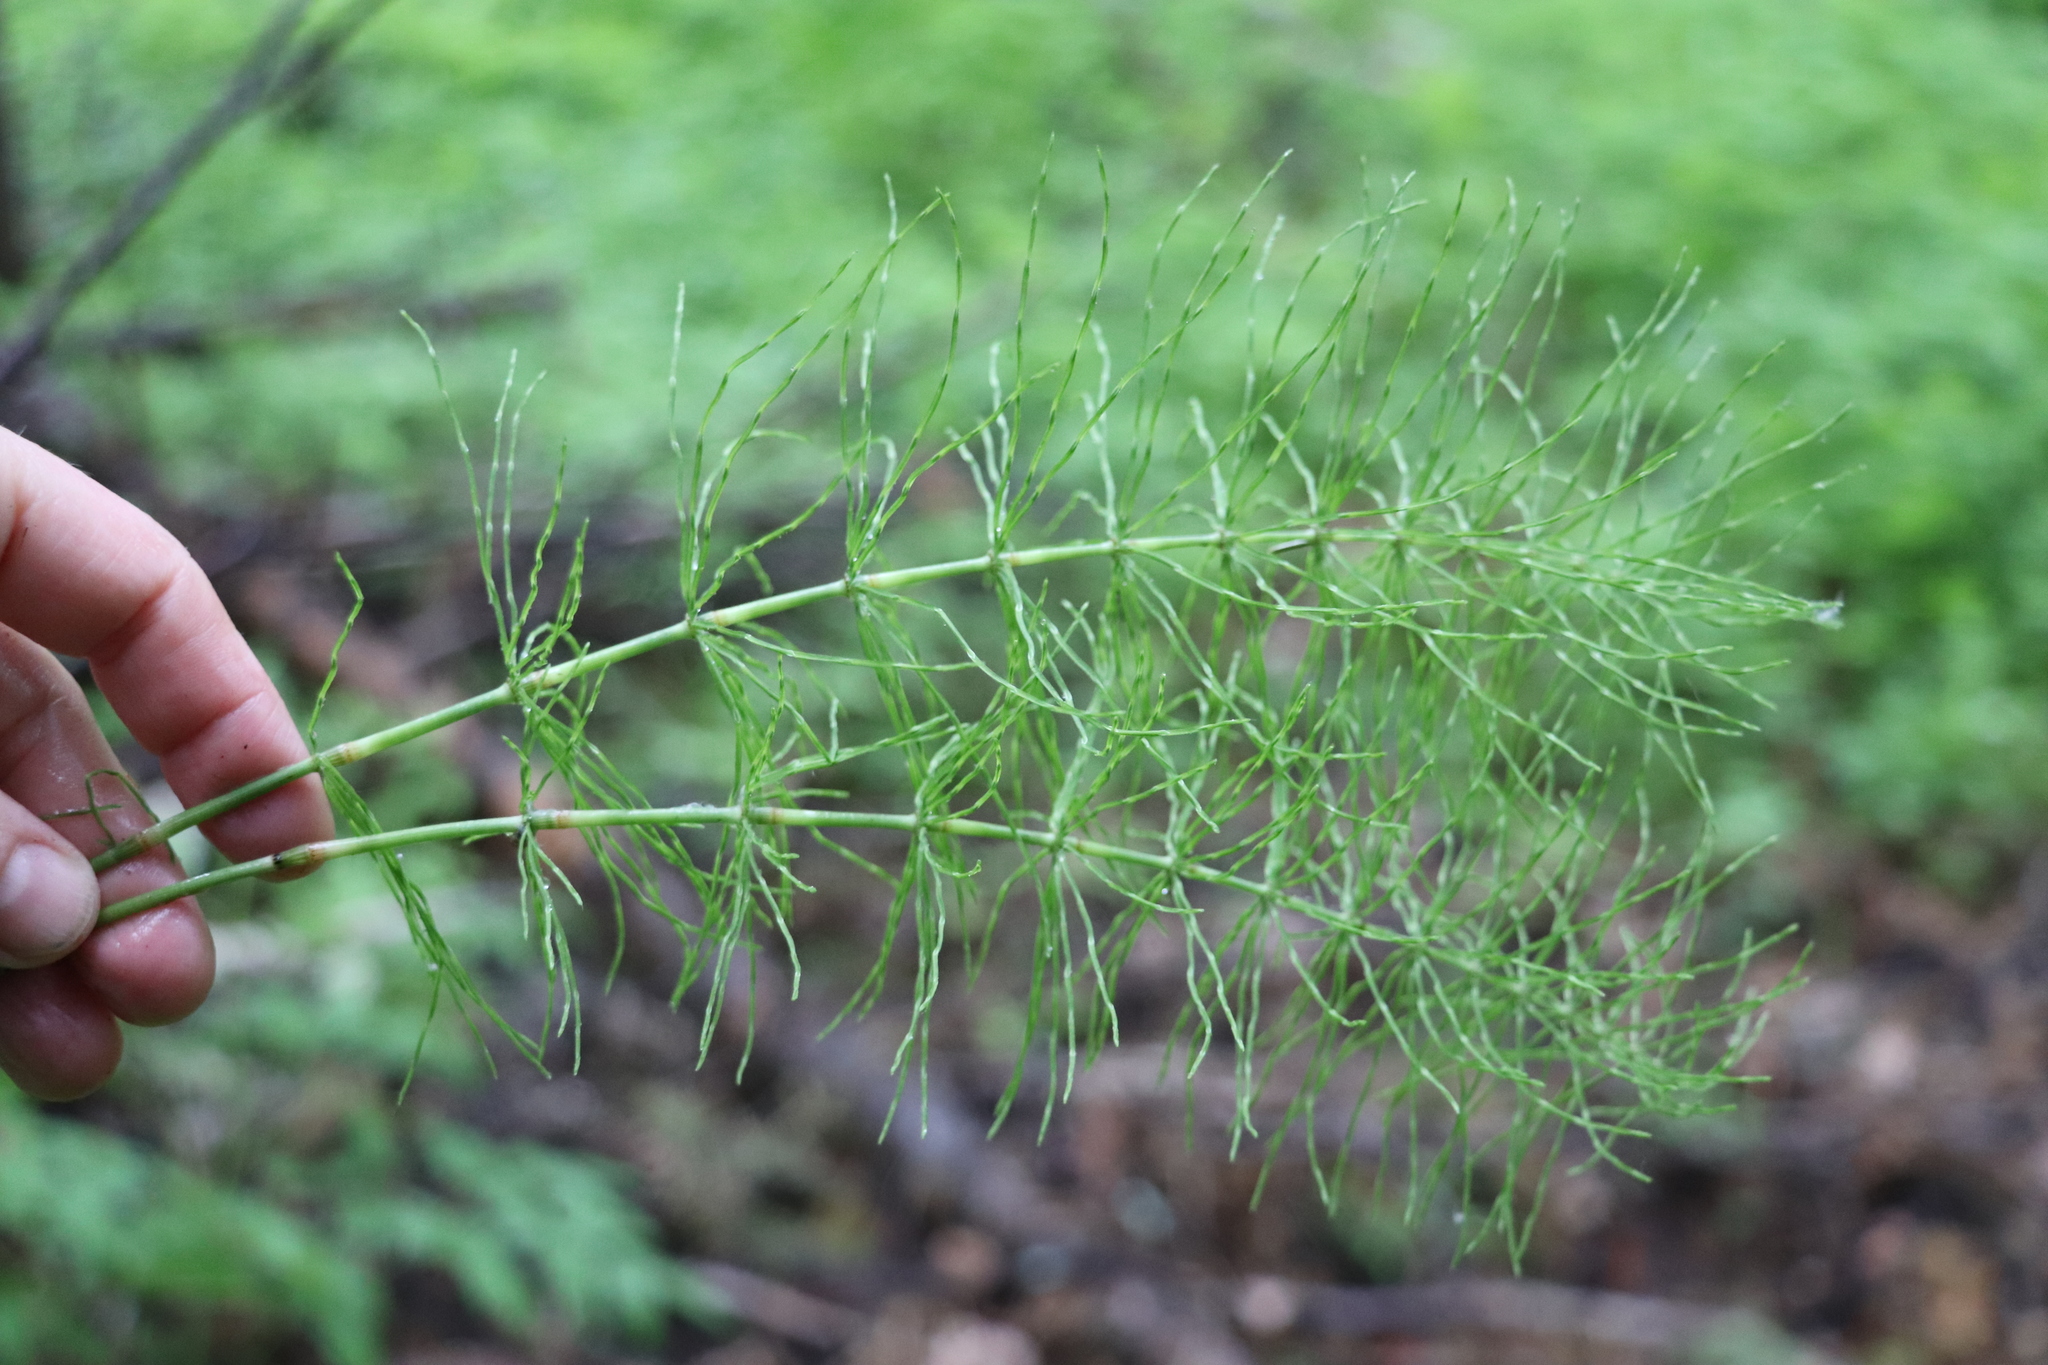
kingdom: Plantae
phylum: Tracheophyta
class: Polypodiopsida
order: Equisetales
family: Equisetaceae
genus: Equisetum
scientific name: Equisetum pratense
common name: Meadow horsetail
